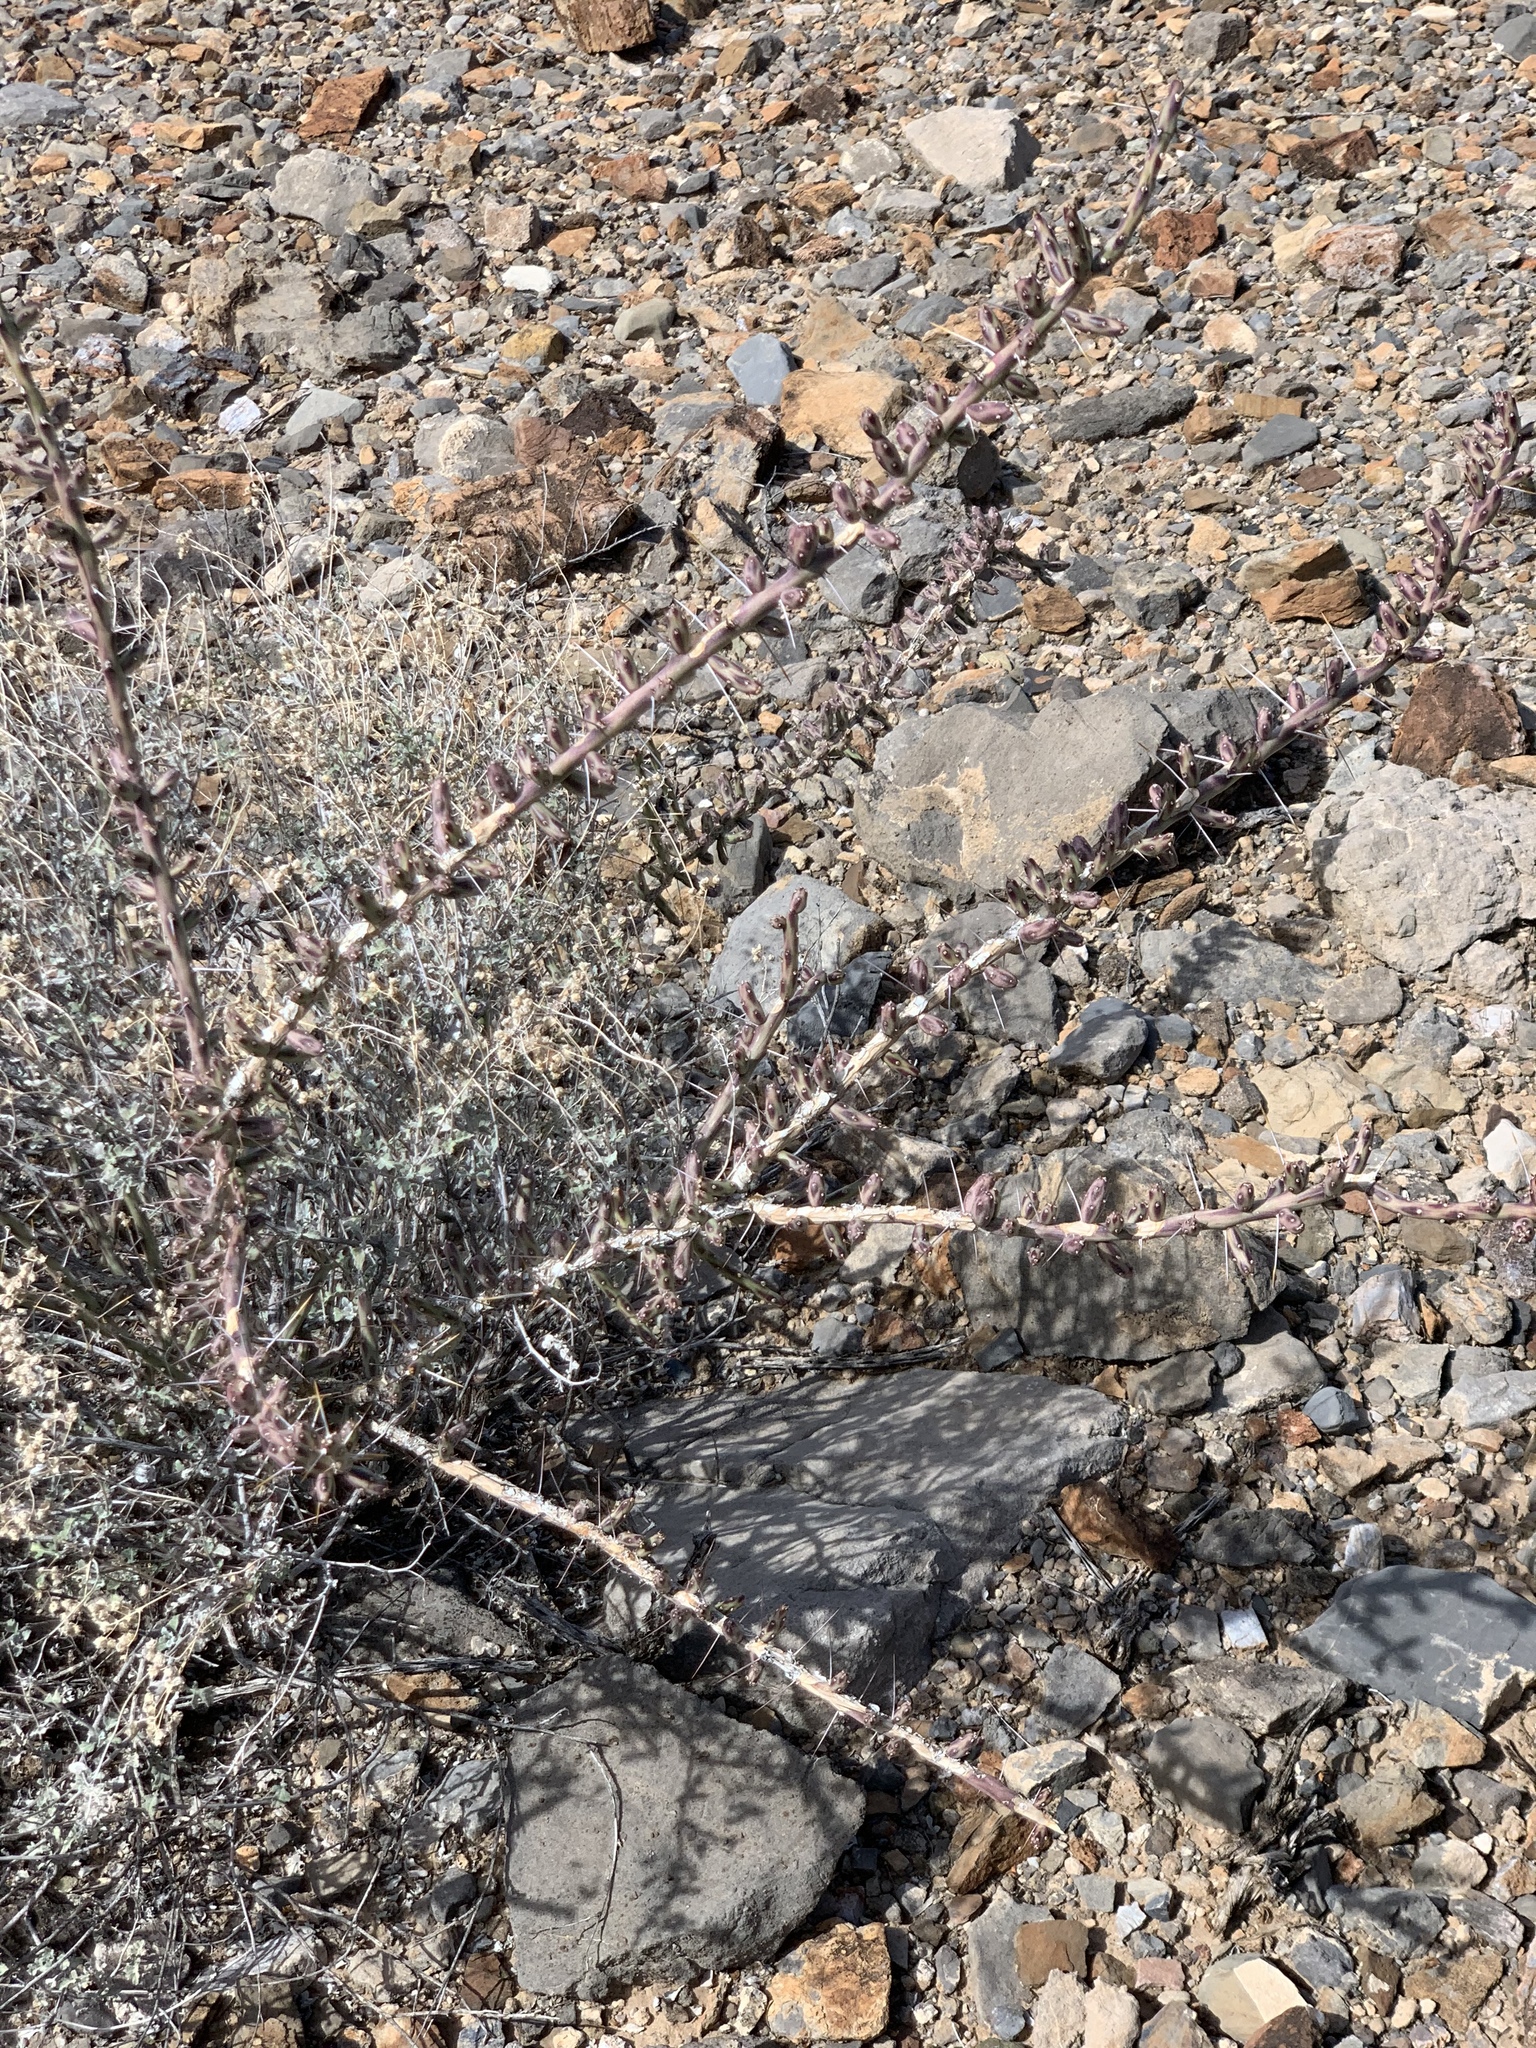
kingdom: Plantae
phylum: Tracheophyta
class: Magnoliopsida
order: Caryophyllales
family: Cactaceae
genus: Cylindropuntia
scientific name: Cylindropuntia leptocaulis
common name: Christmas cactus
